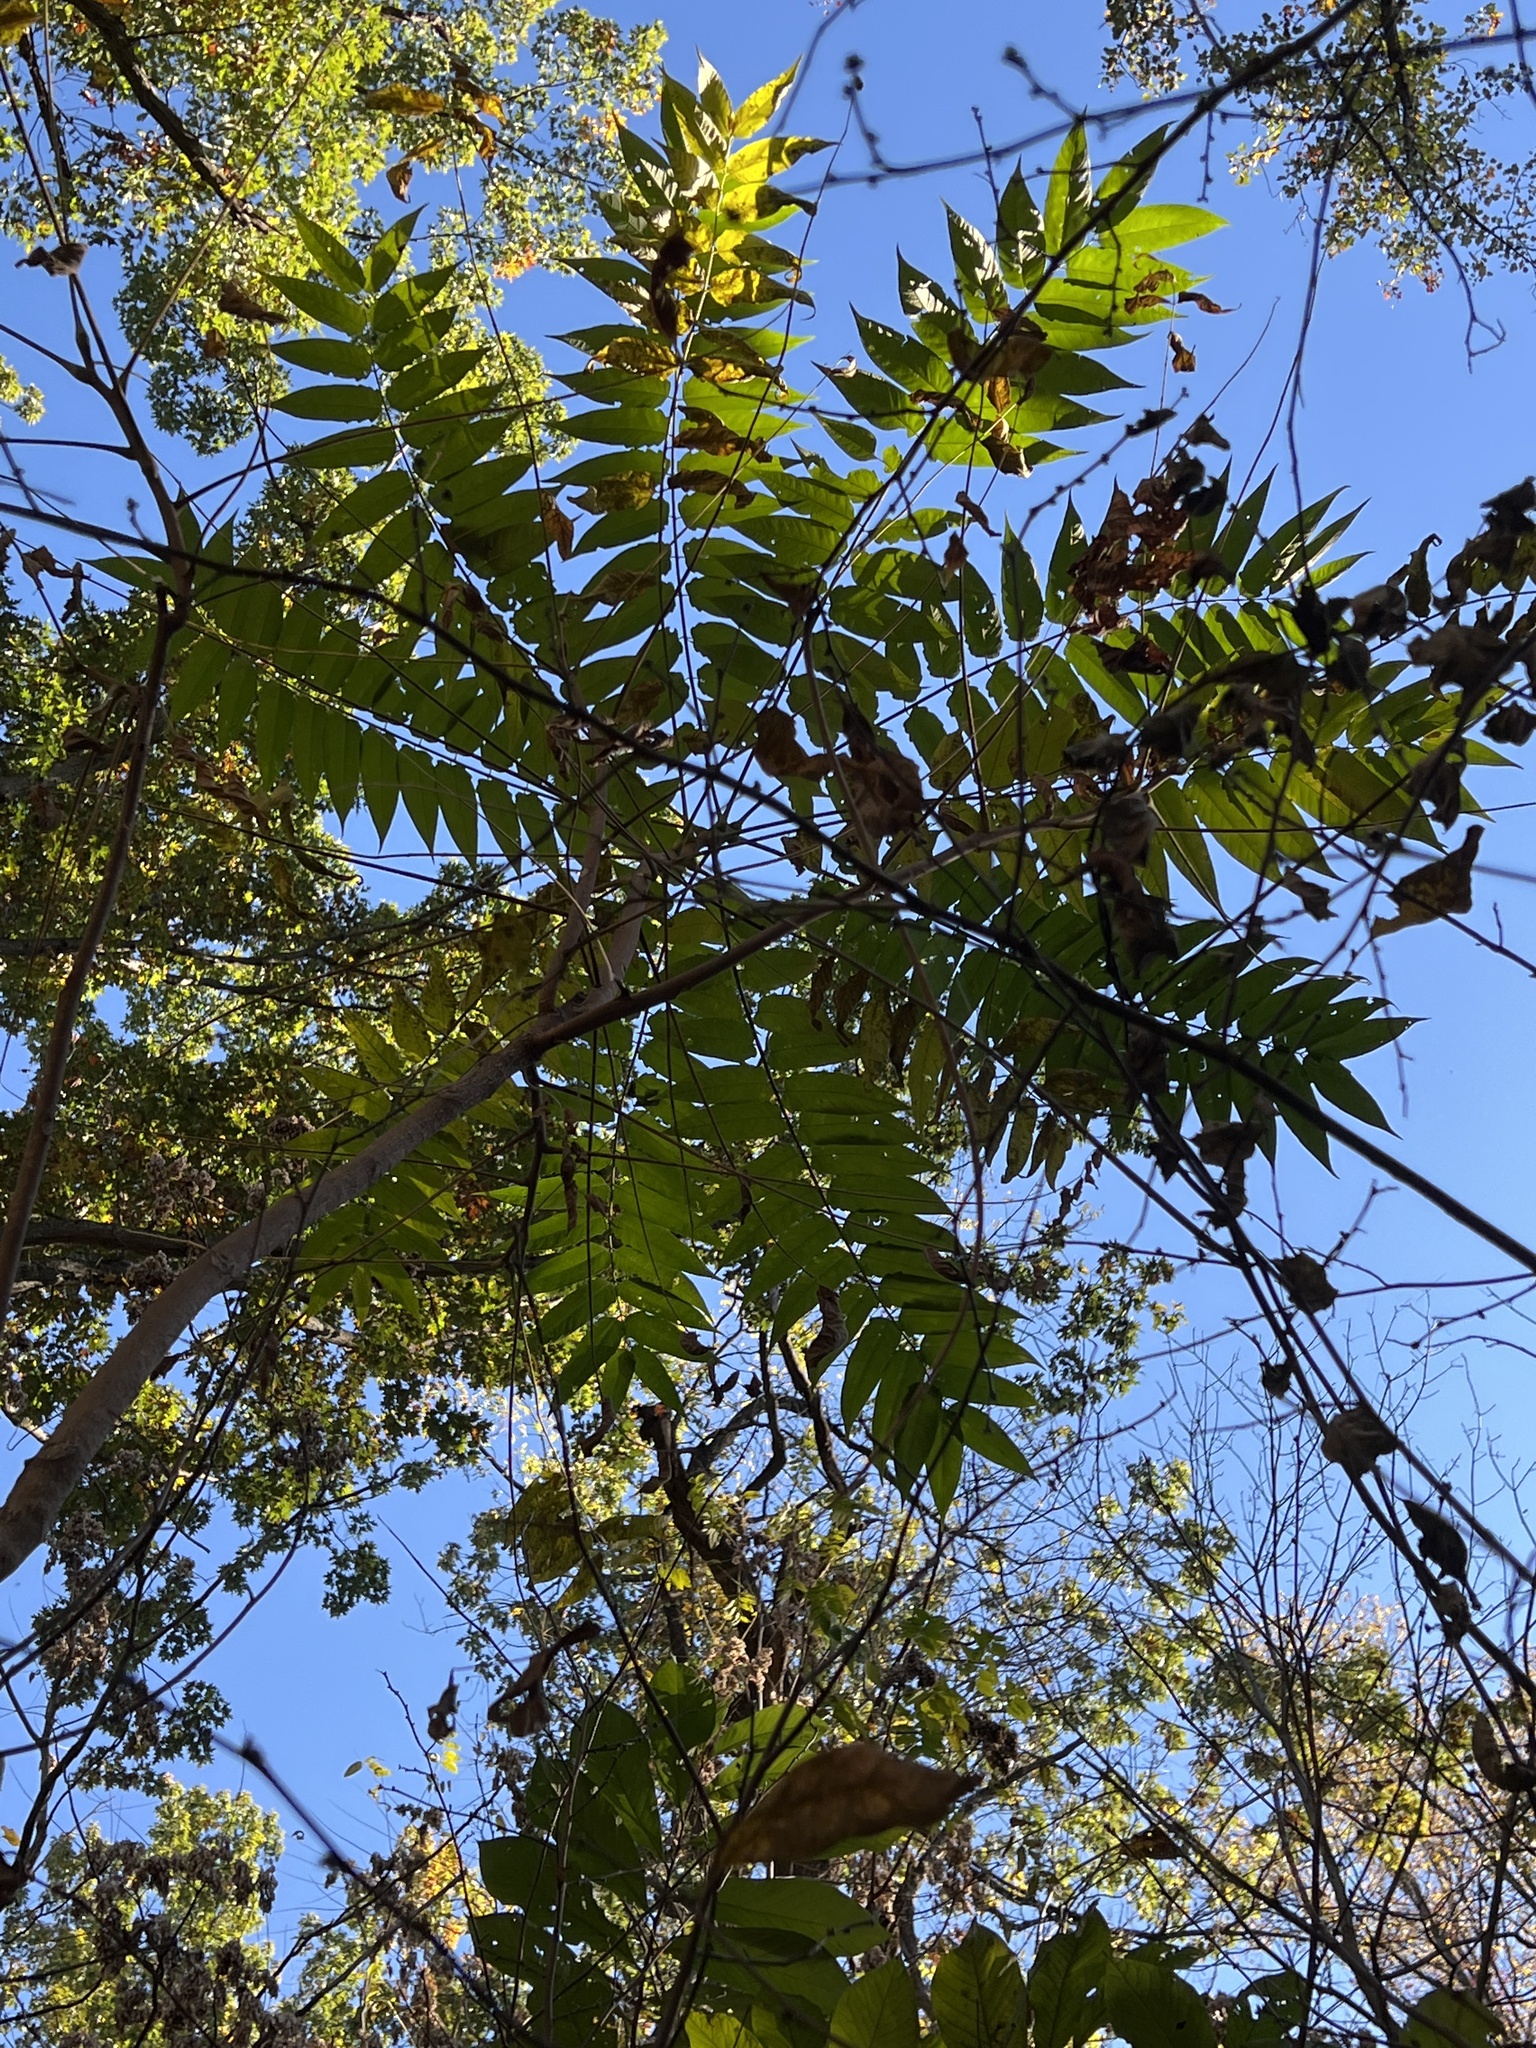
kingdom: Plantae
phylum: Tracheophyta
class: Magnoliopsida
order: Sapindales
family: Simaroubaceae
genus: Ailanthus
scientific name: Ailanthus altissima
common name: Tree-of-heaven
